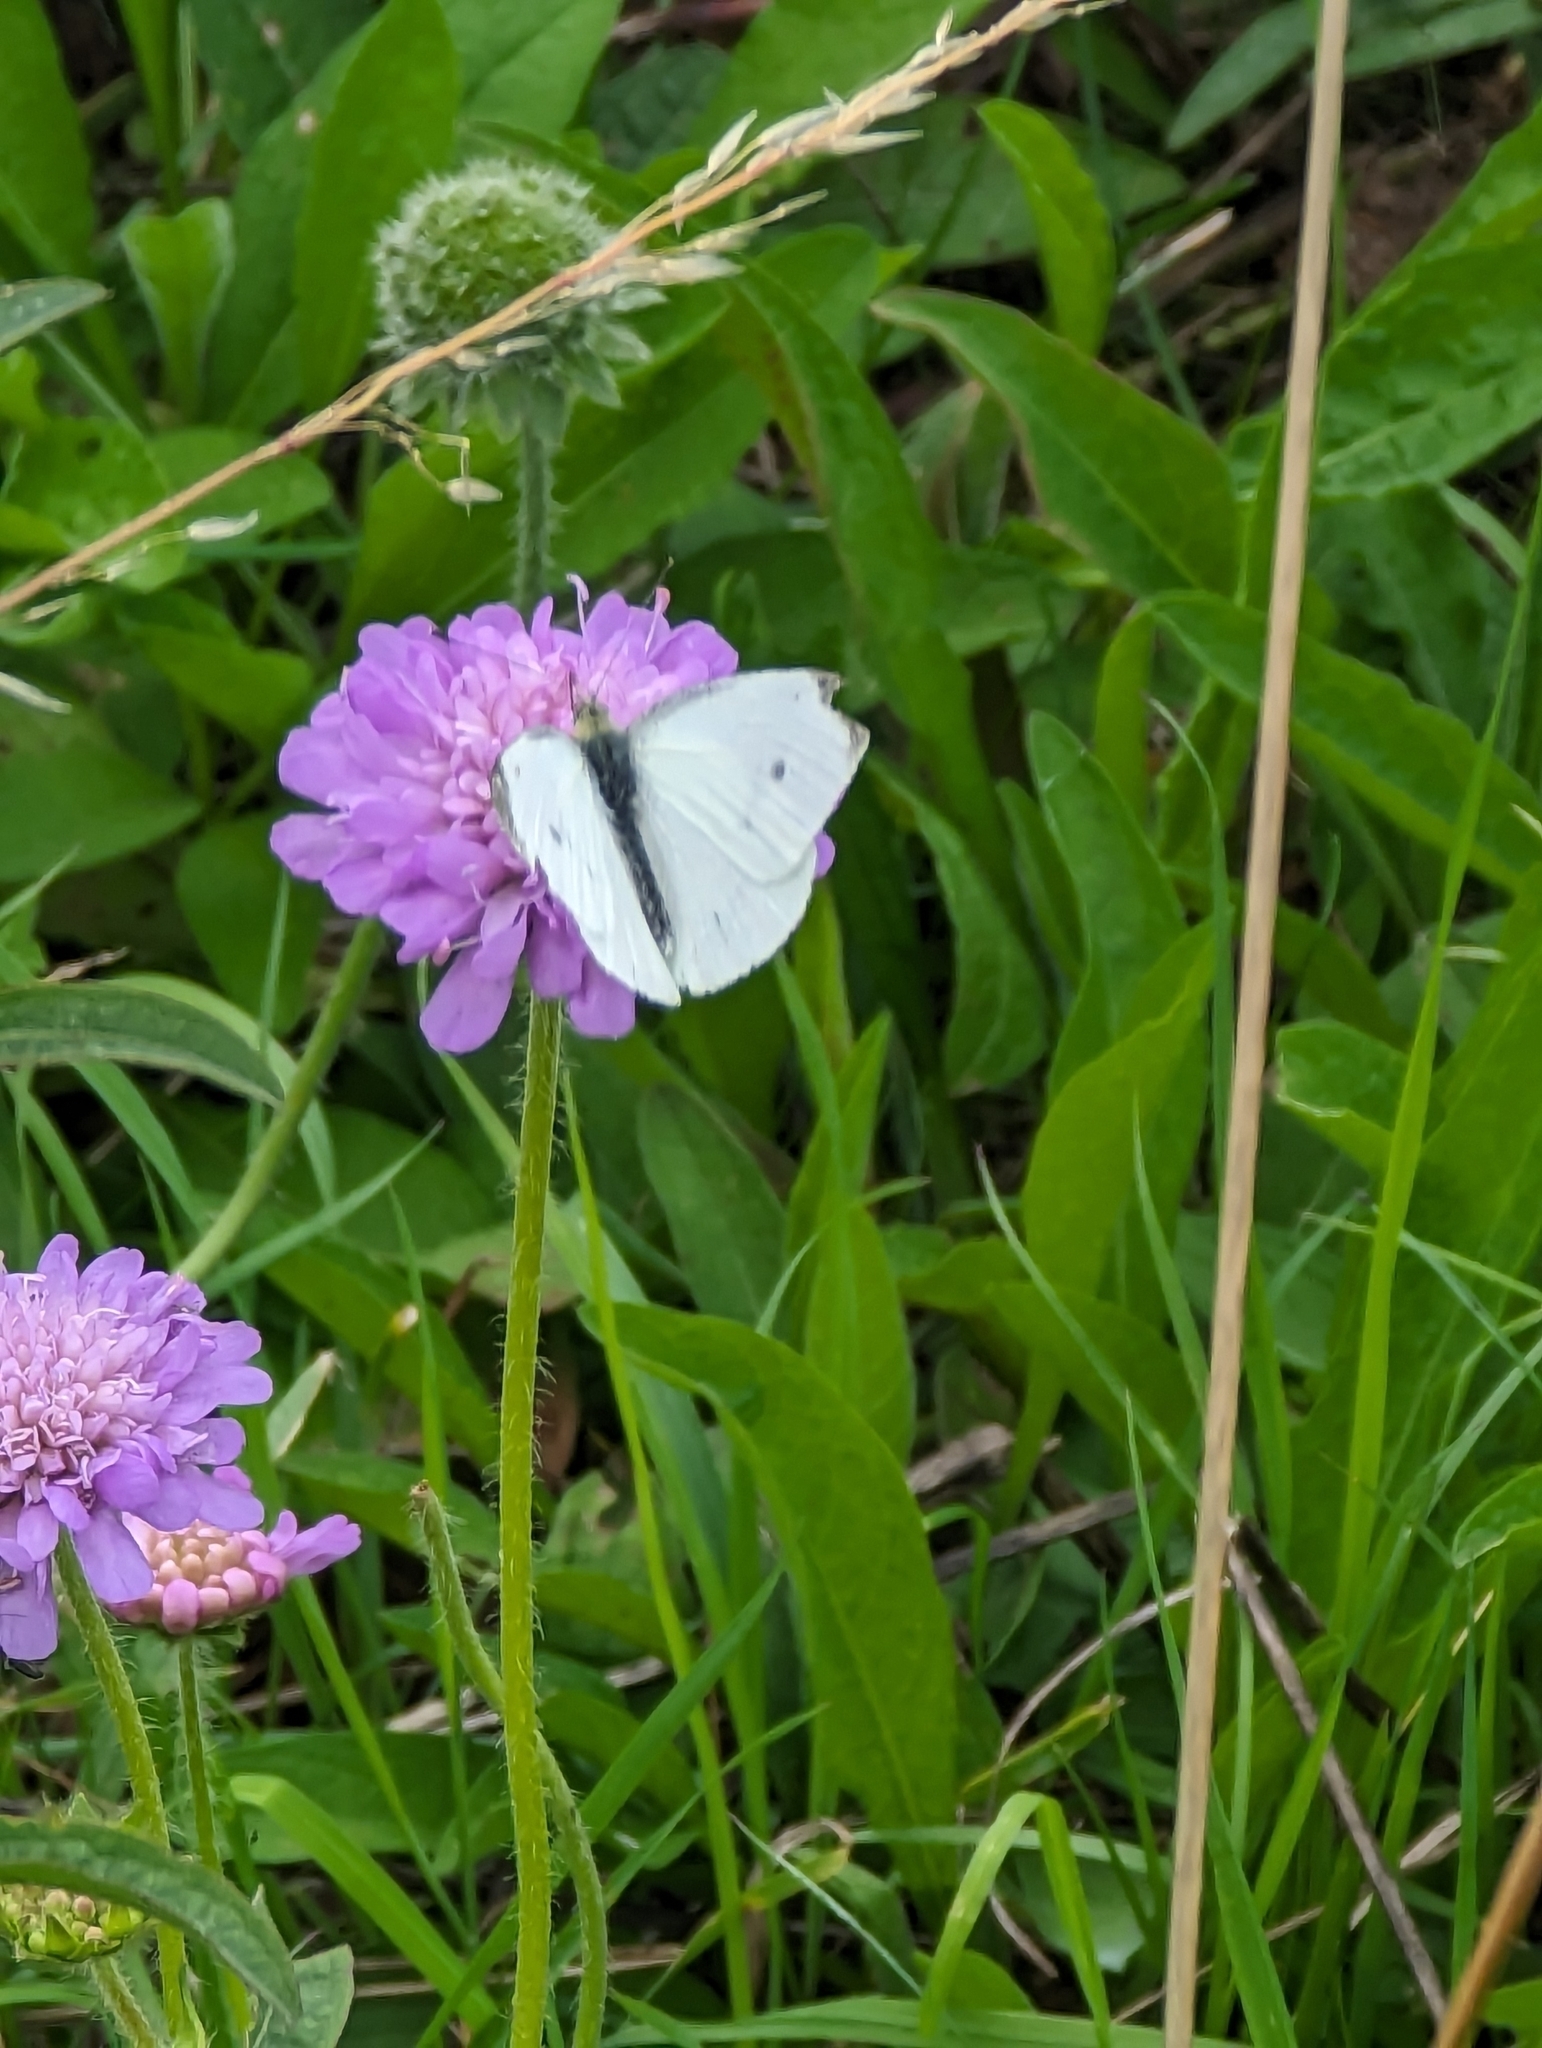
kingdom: Animalia
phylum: Arthropoda
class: Insecta
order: Lepidoptera
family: Pieridae
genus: Pieris
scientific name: Pieris rapae
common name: Small white
